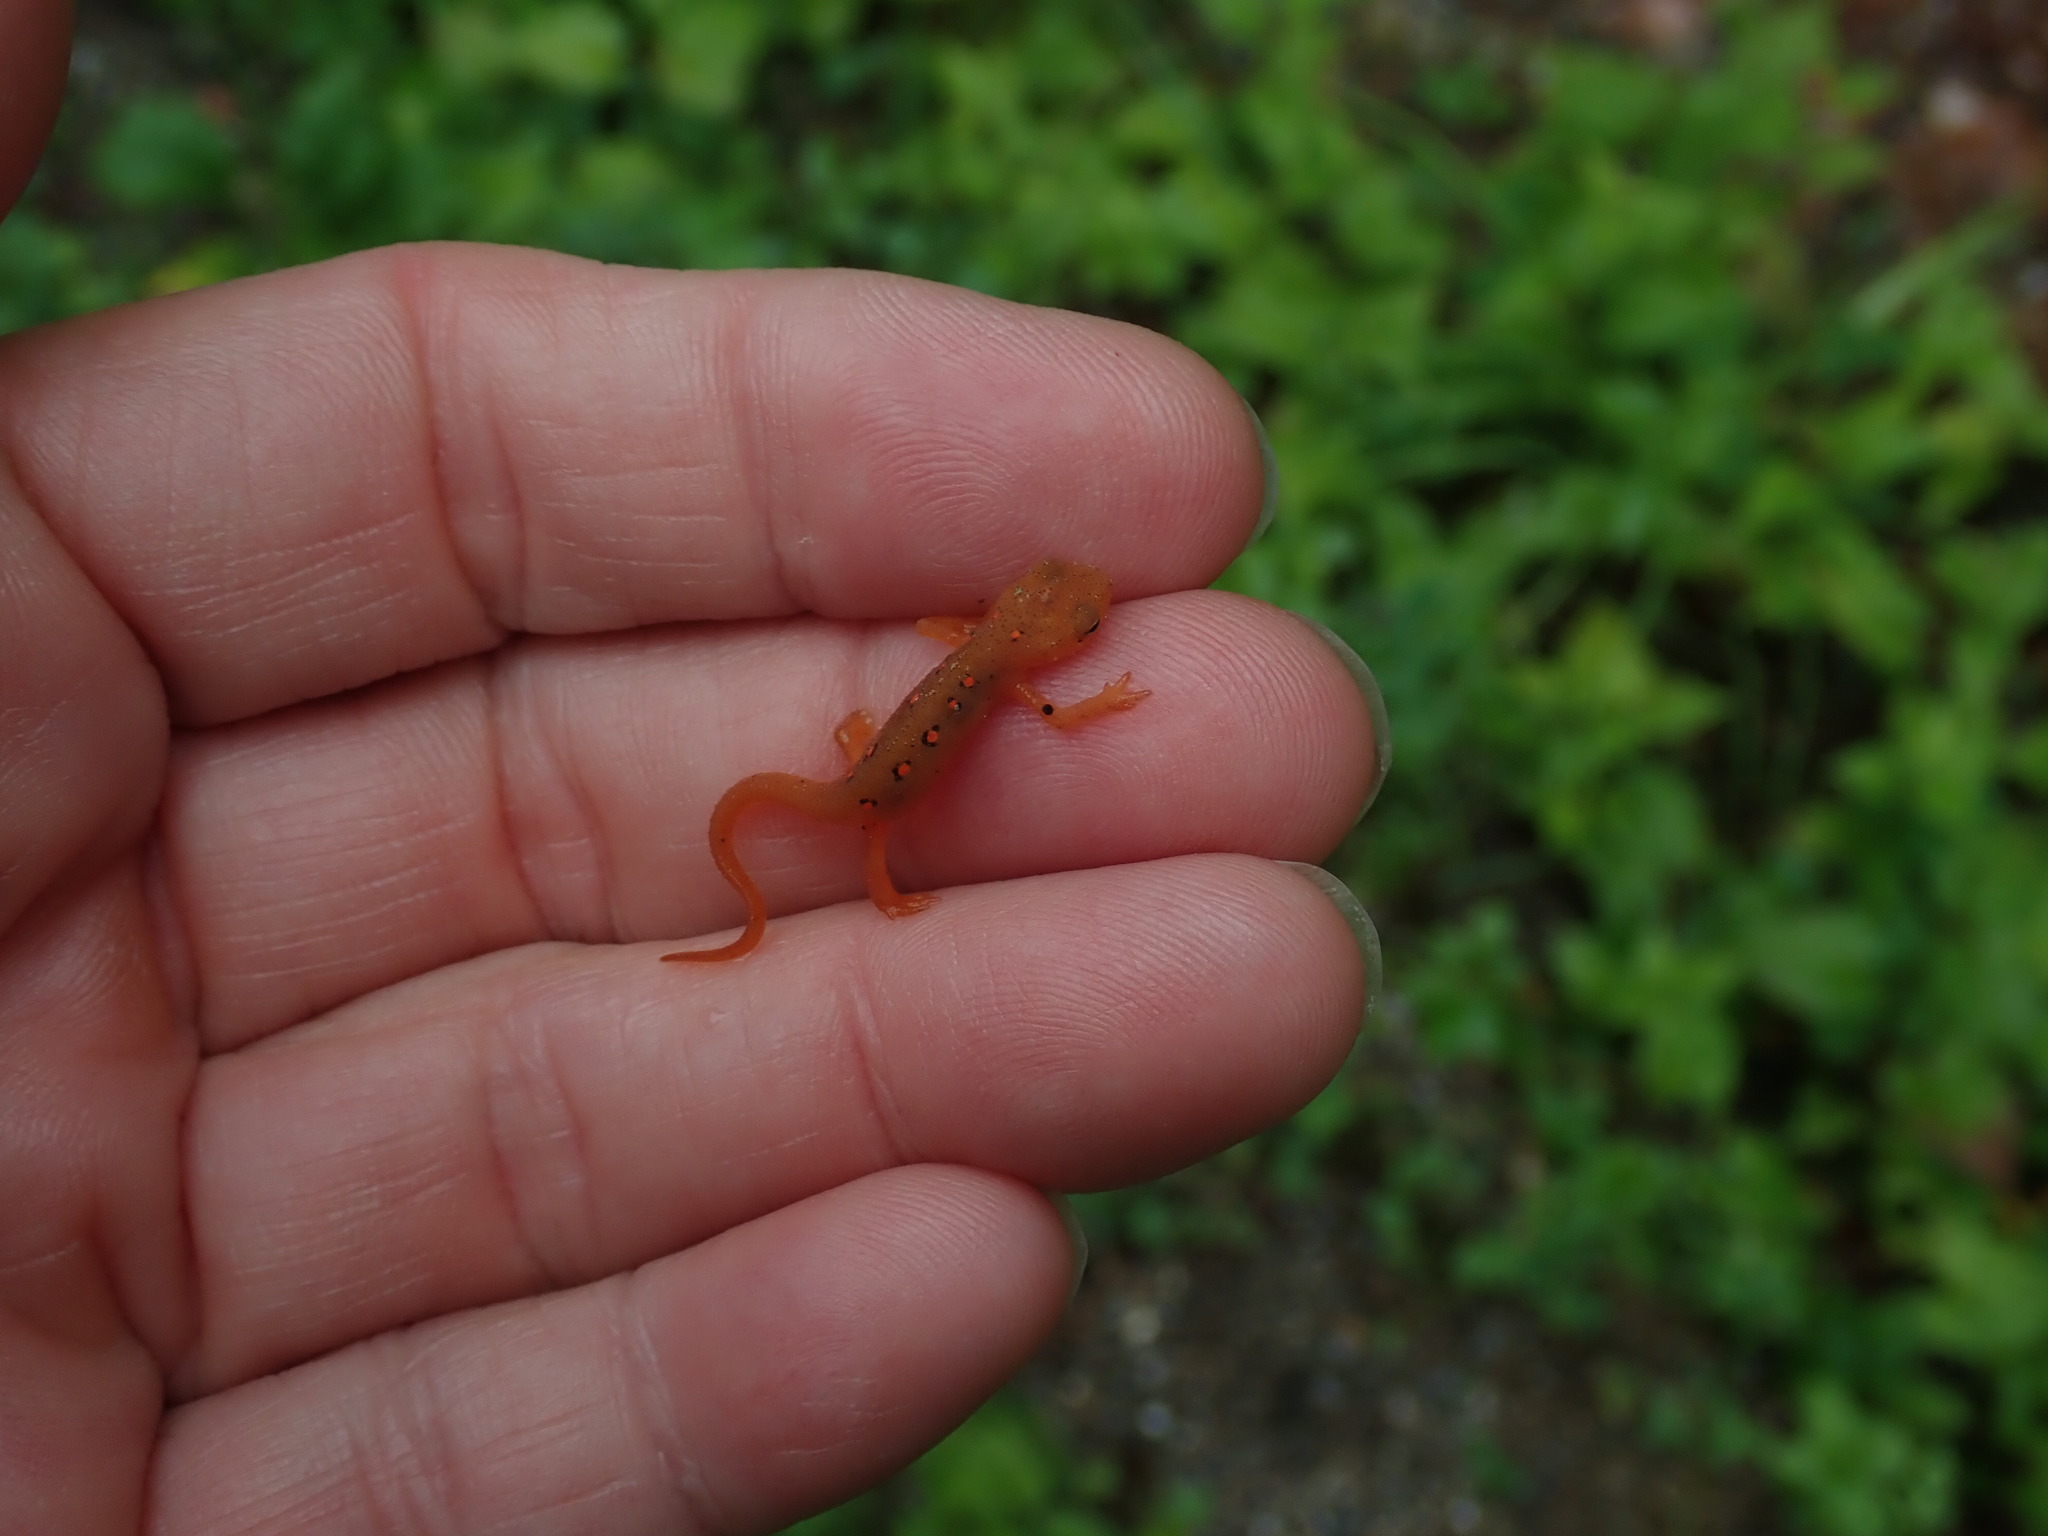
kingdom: Animalia
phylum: Chordata
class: Amphibia
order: Caudata
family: Salamandridae
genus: Notophthalmus
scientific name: Notophthalmus viridescens
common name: Eastern newt
